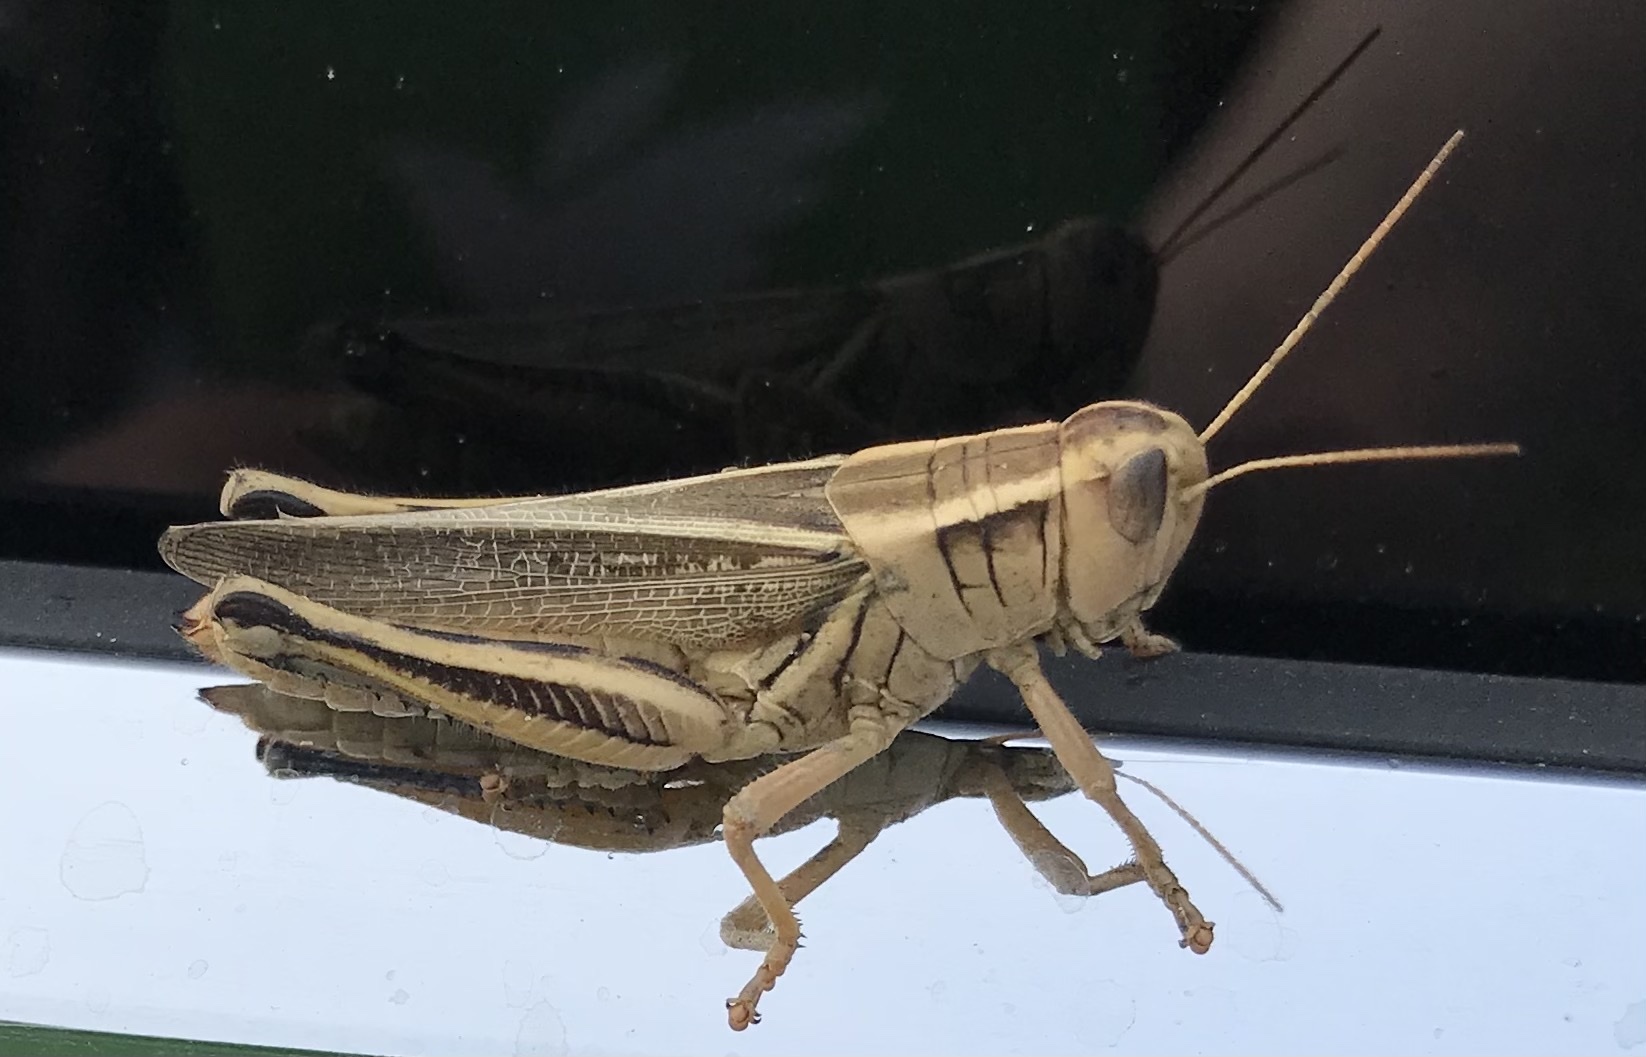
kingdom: Animalia
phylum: Arthropoda
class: Insecta
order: Orthoptera
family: Acrididae
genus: Melanoplus
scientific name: Melanoplus bivittatus
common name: Two-striped grasshopper
